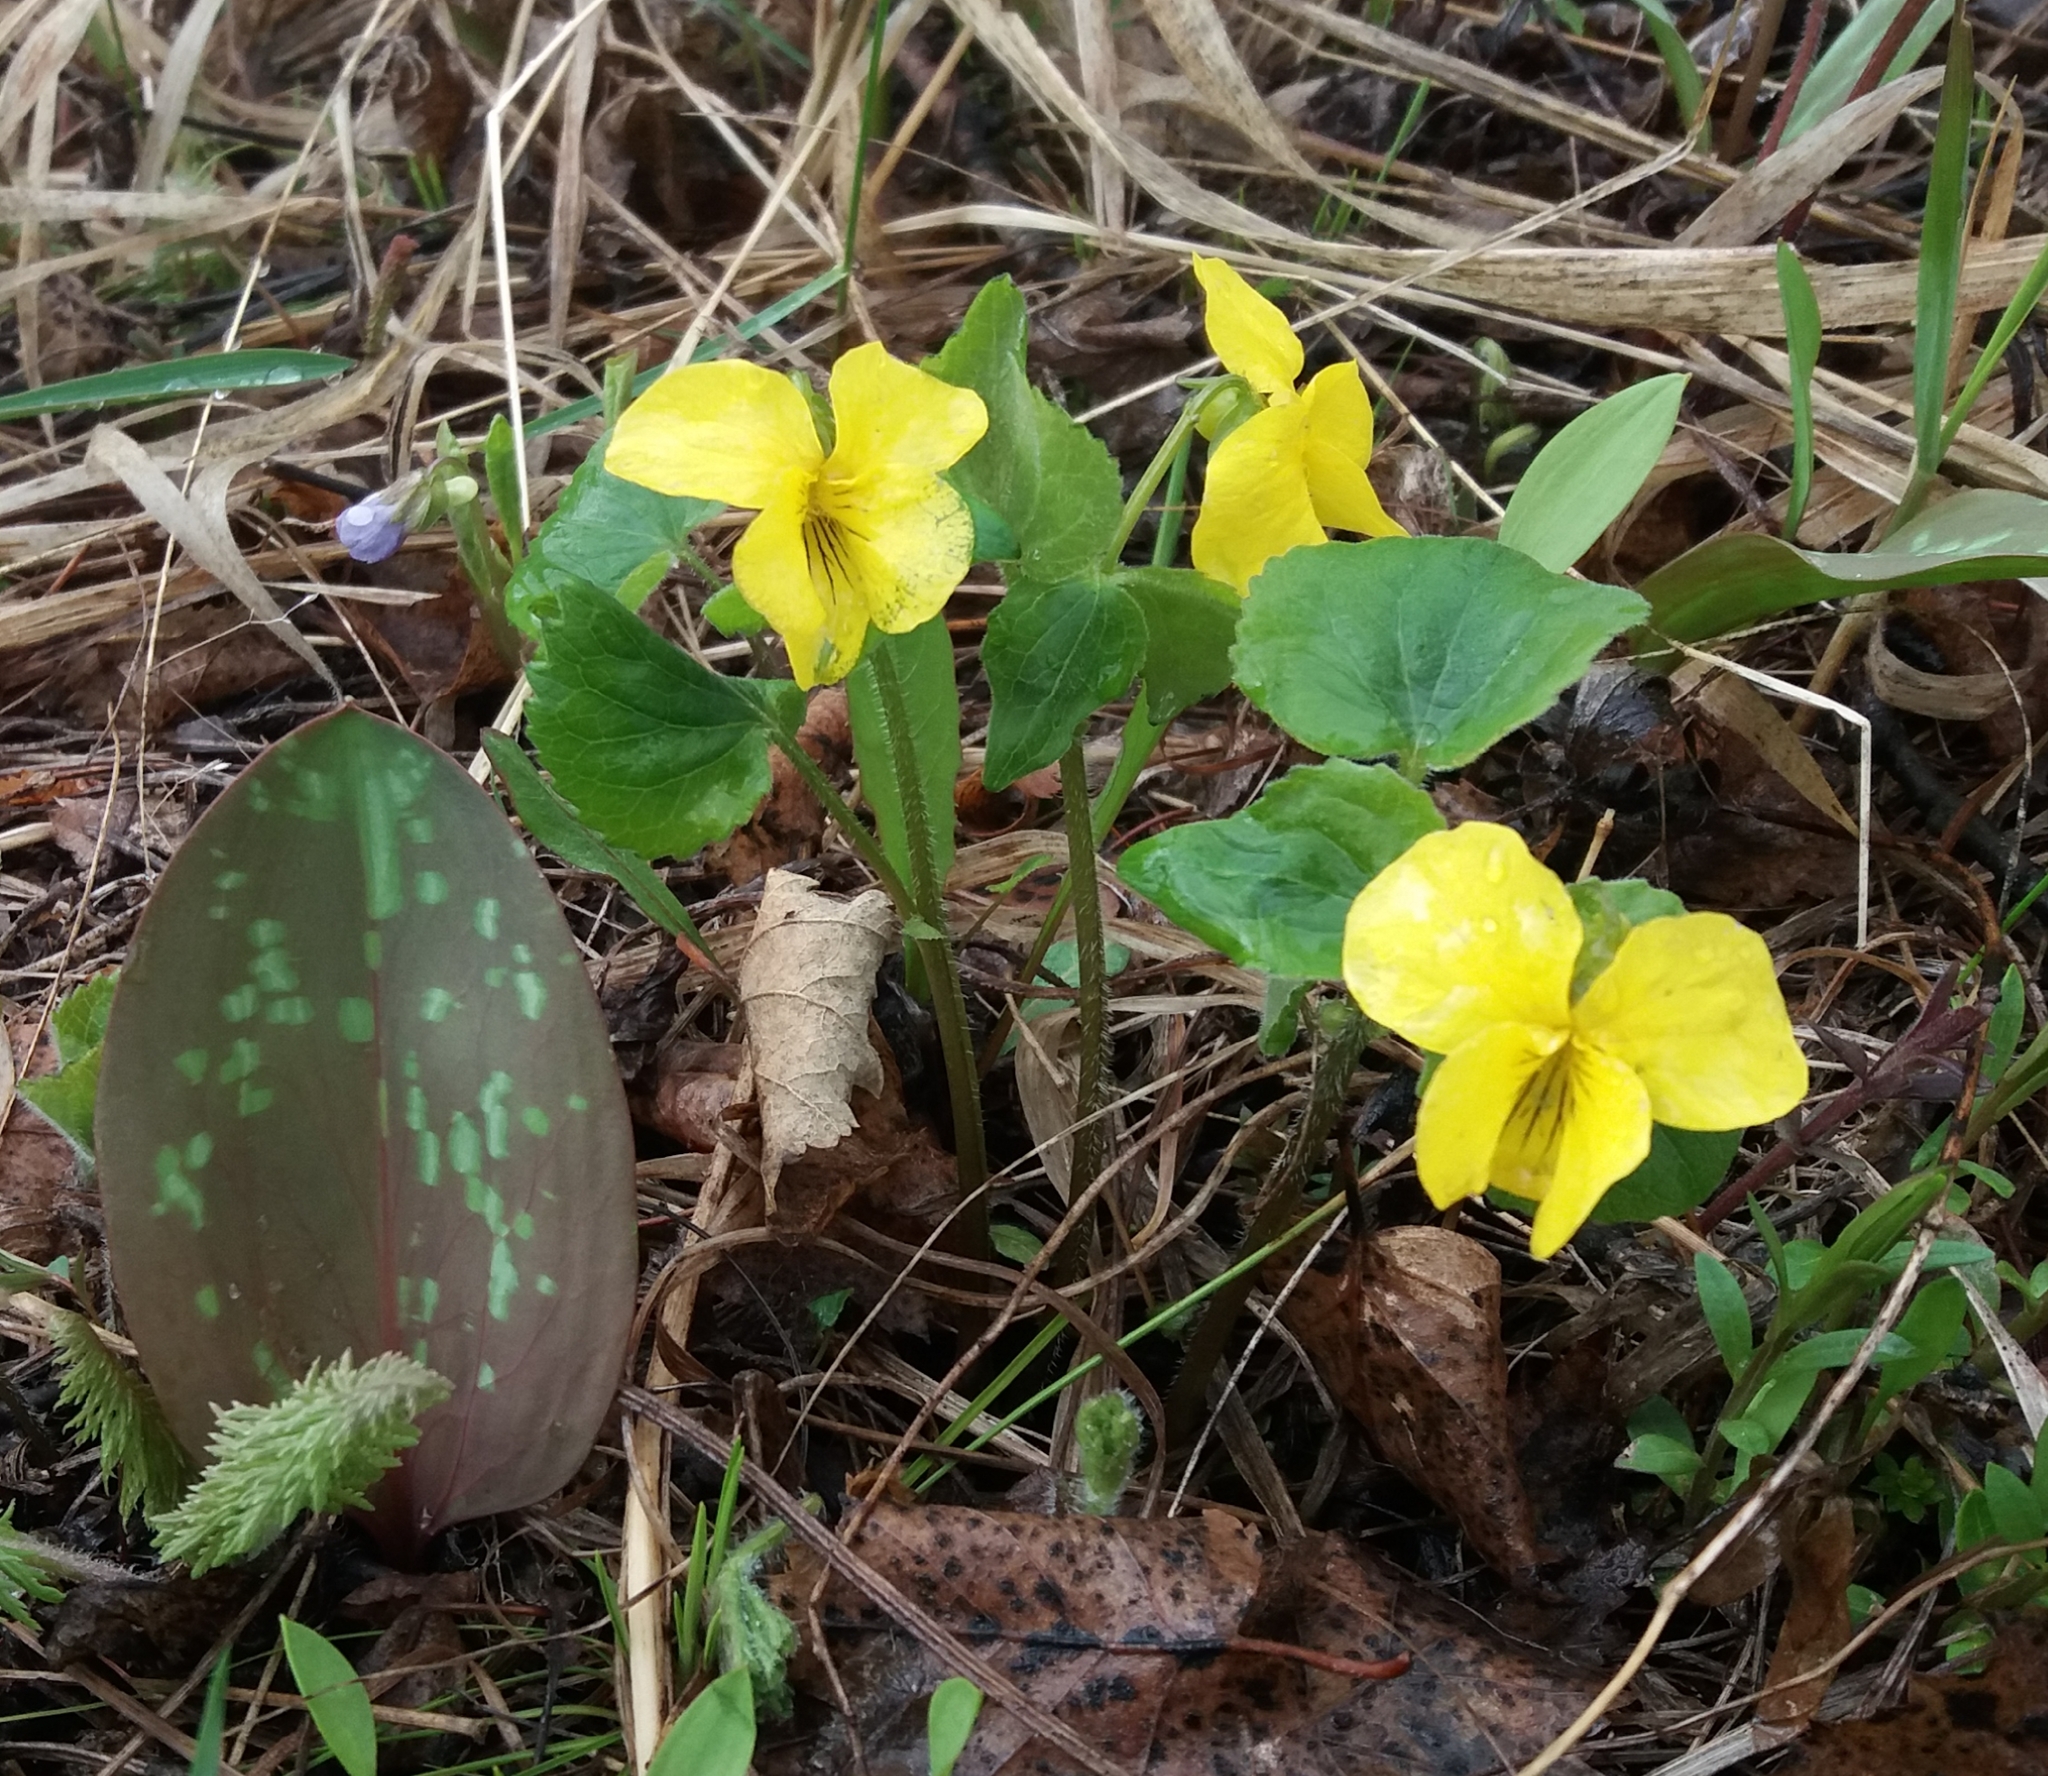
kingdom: Plantae
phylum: Tracheophyta
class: Magnoliopsida
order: Malpighiales
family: Violaceae
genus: Viola
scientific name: Viola uniflora
